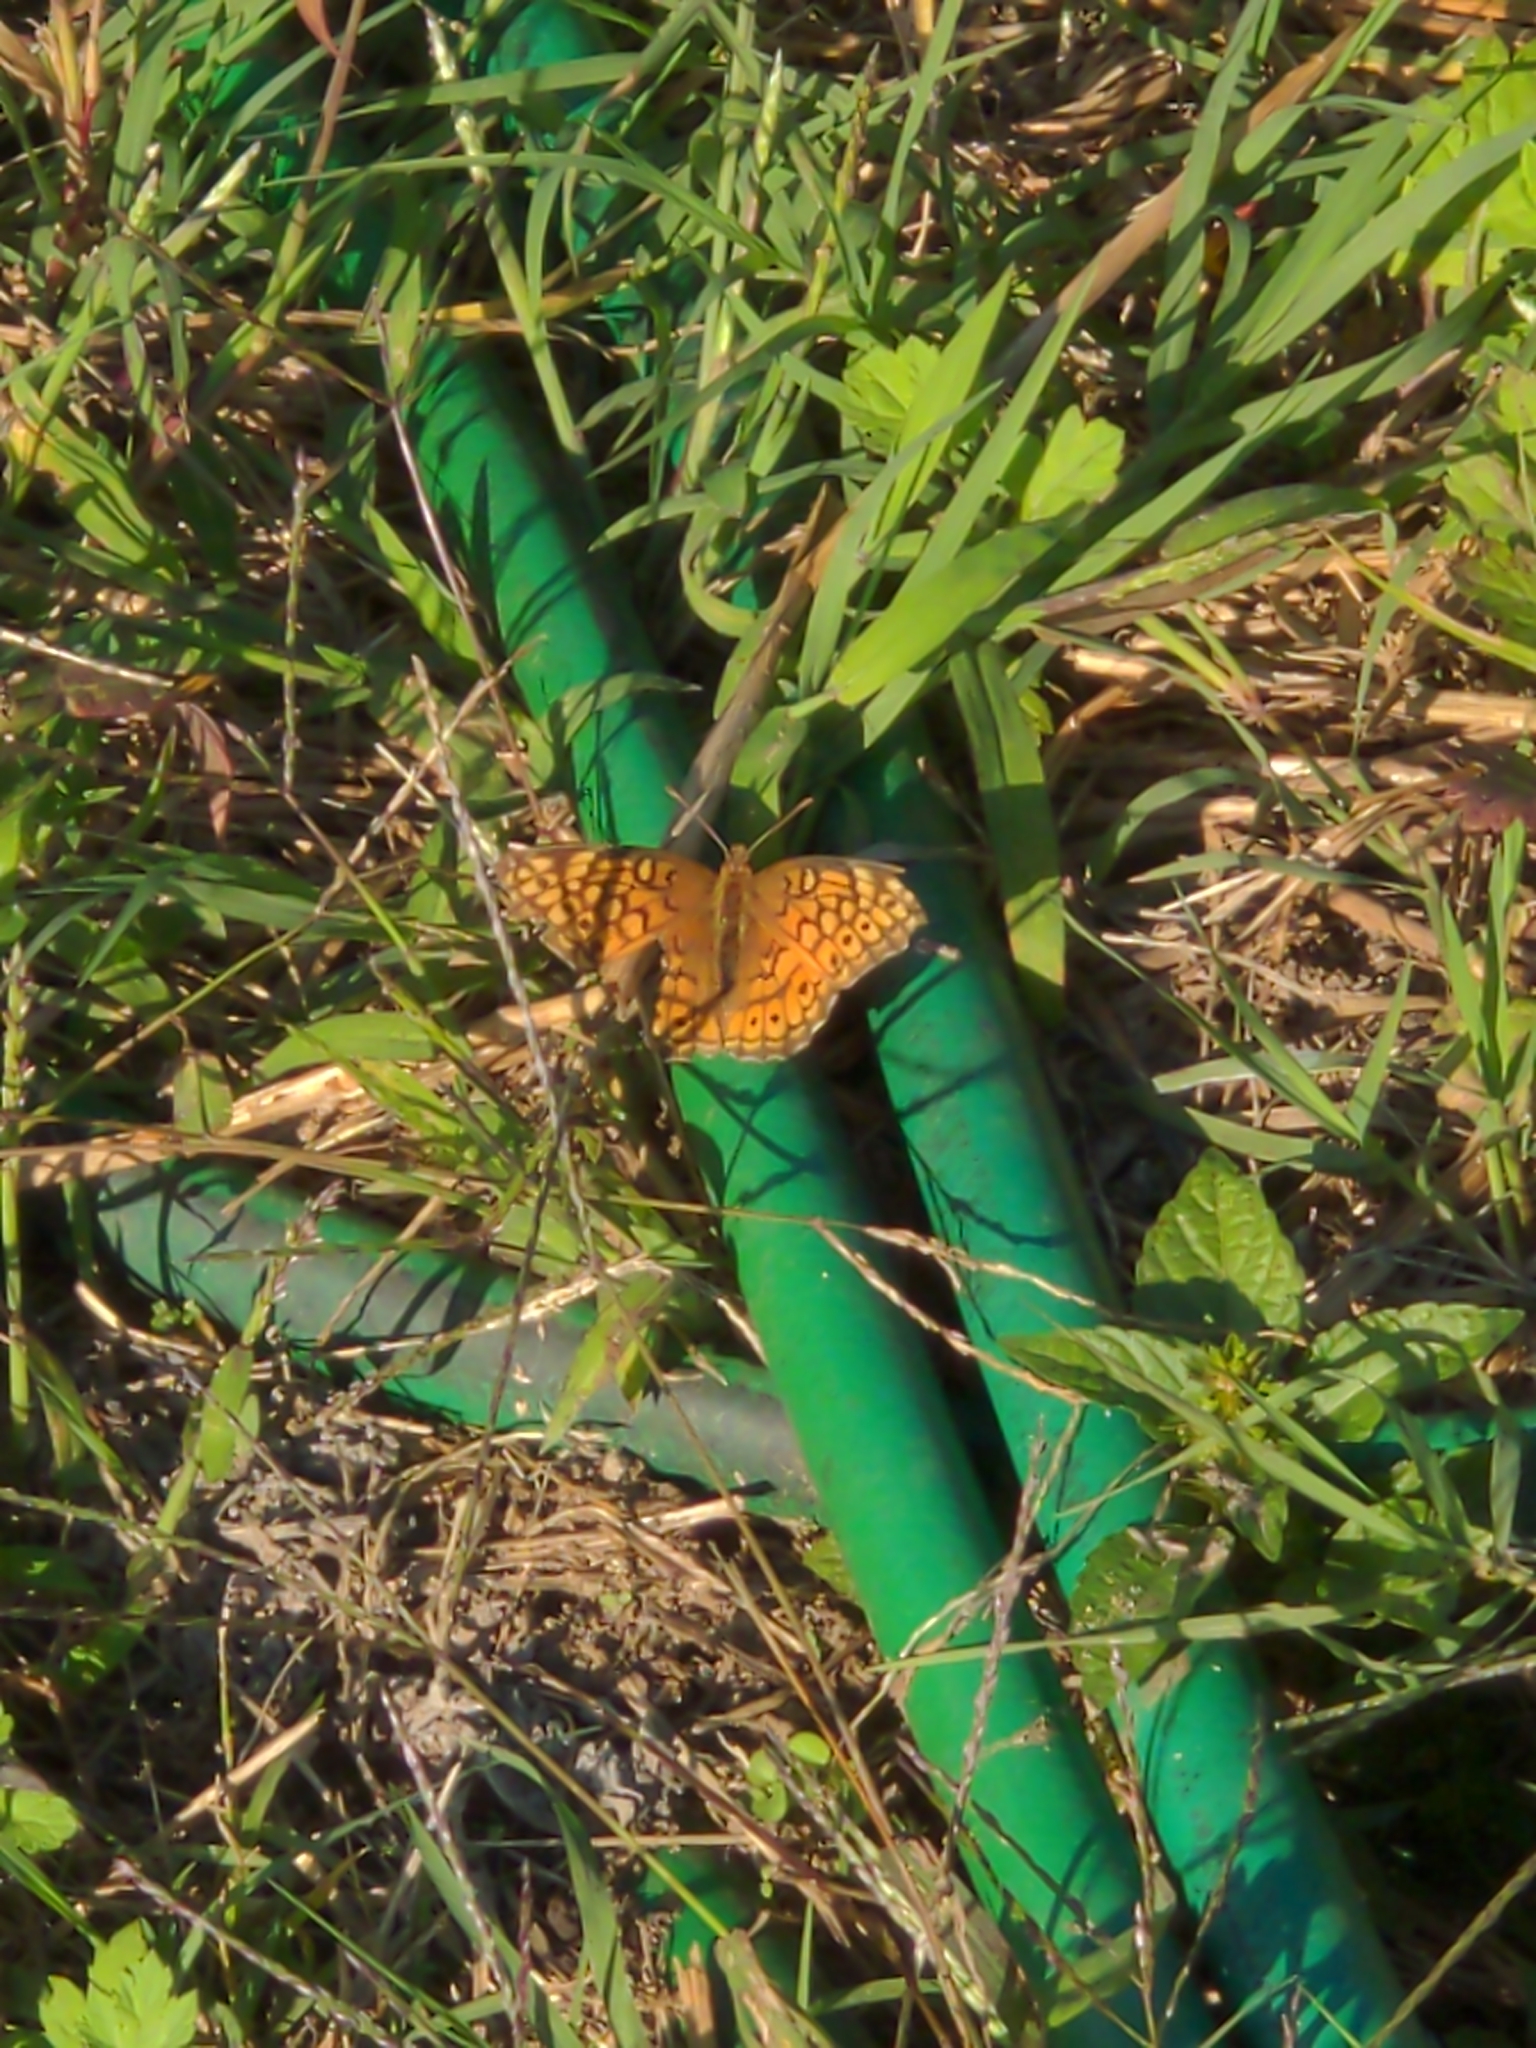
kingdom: Animalia
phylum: Arthropoda
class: Insecta
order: Lepidoptera
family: Nymphalidae
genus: Euptoieta
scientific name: Euptoieta claudia
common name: Variegated fritillary
